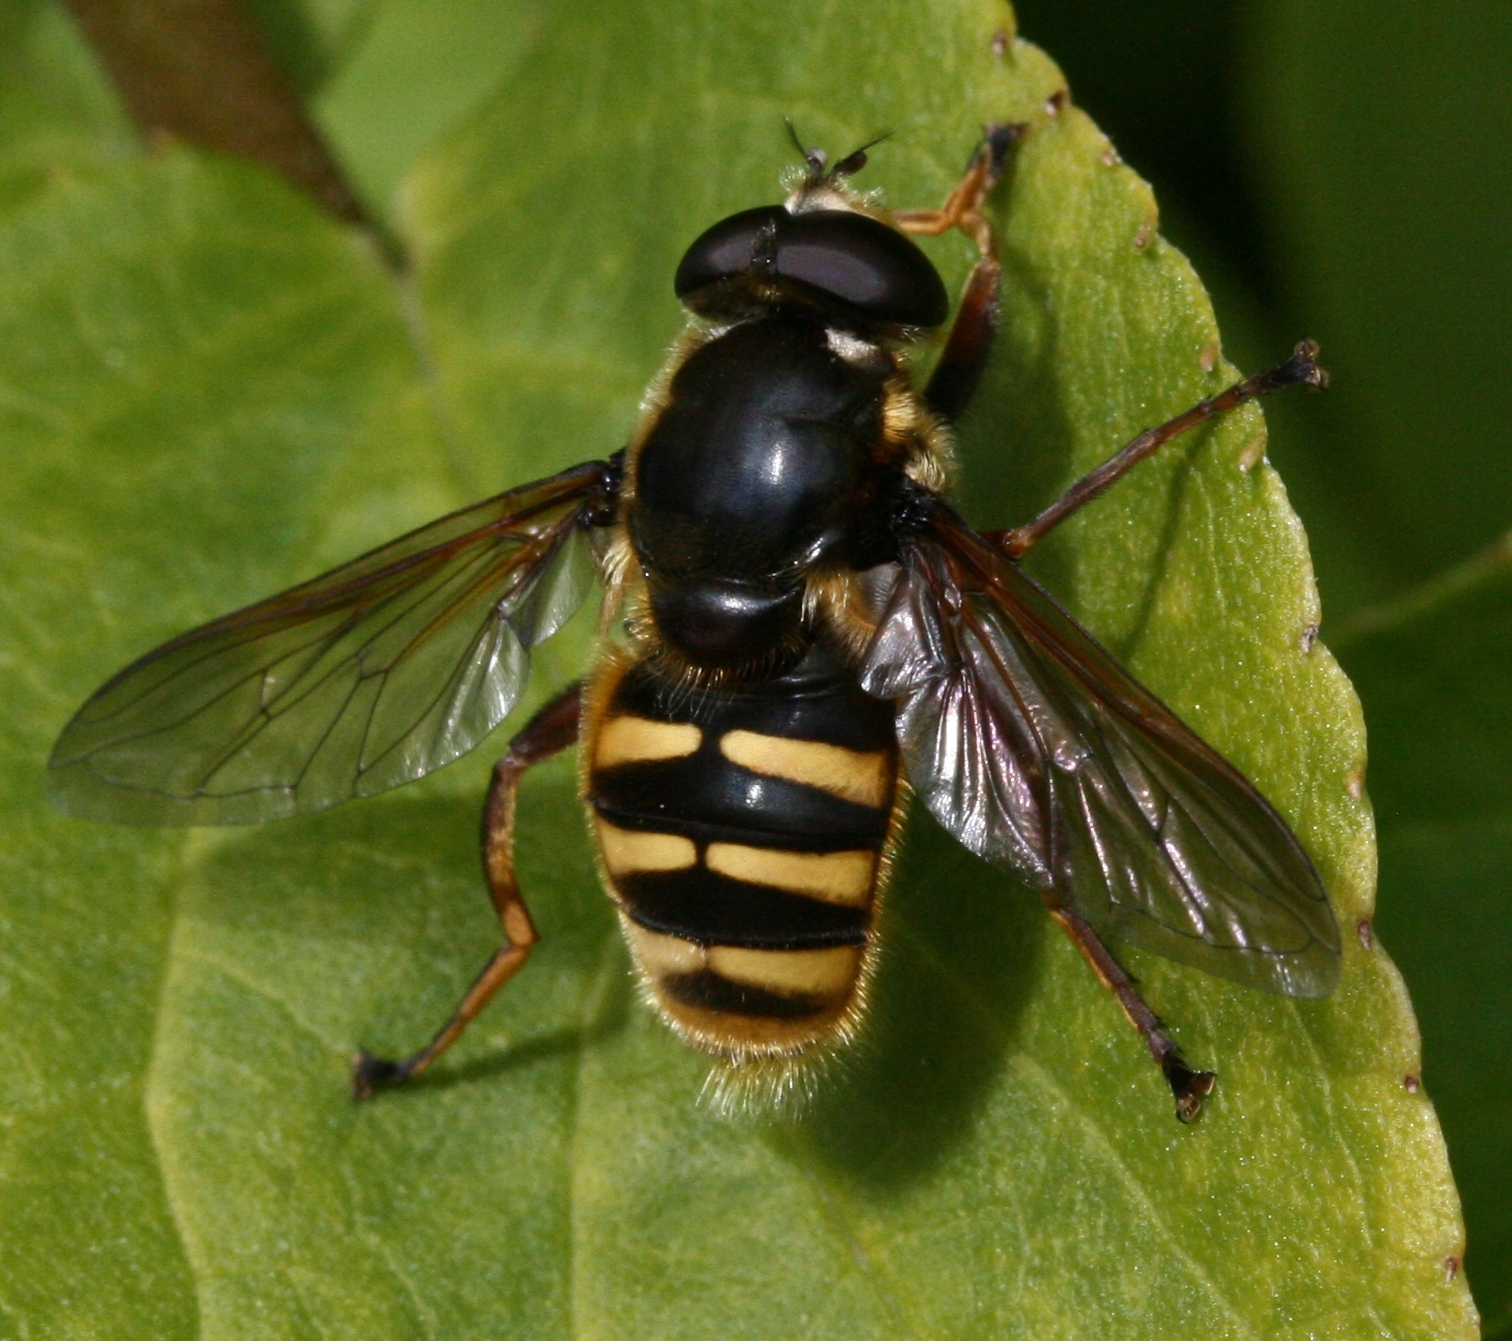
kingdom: Animalia
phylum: Arthropoda
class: Insecta
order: Diptera
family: Syrphidae
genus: Sericomyia
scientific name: Sericomyia silentis
